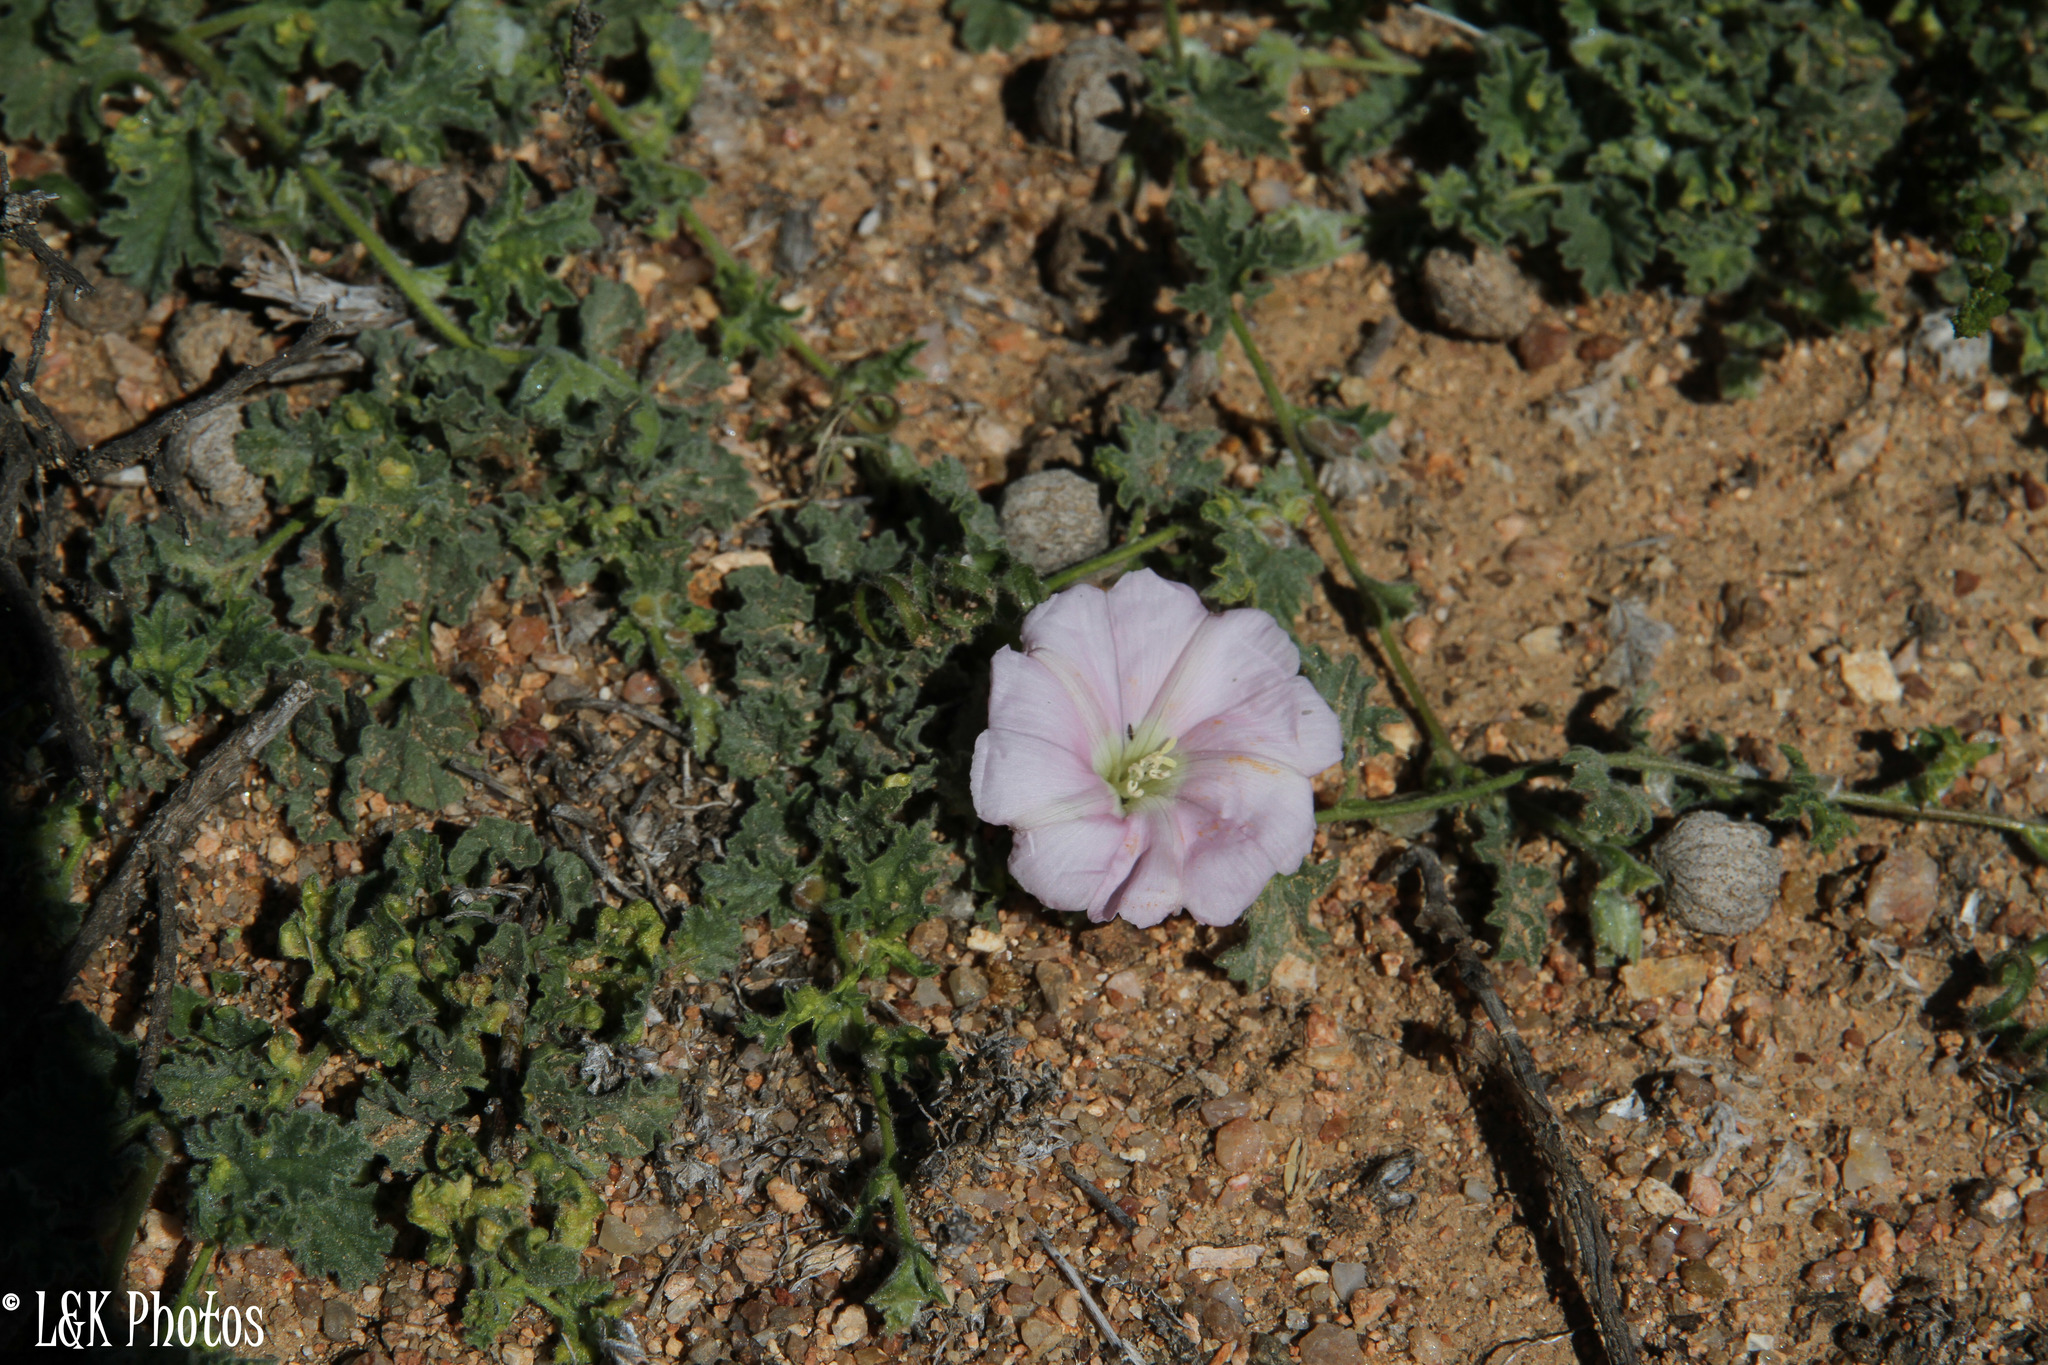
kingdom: Plantae
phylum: Tracheophyta
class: Magnoliopsida
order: Solanales
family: Convolvulaceae
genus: Convolvulus
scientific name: Convolvulus capensis
